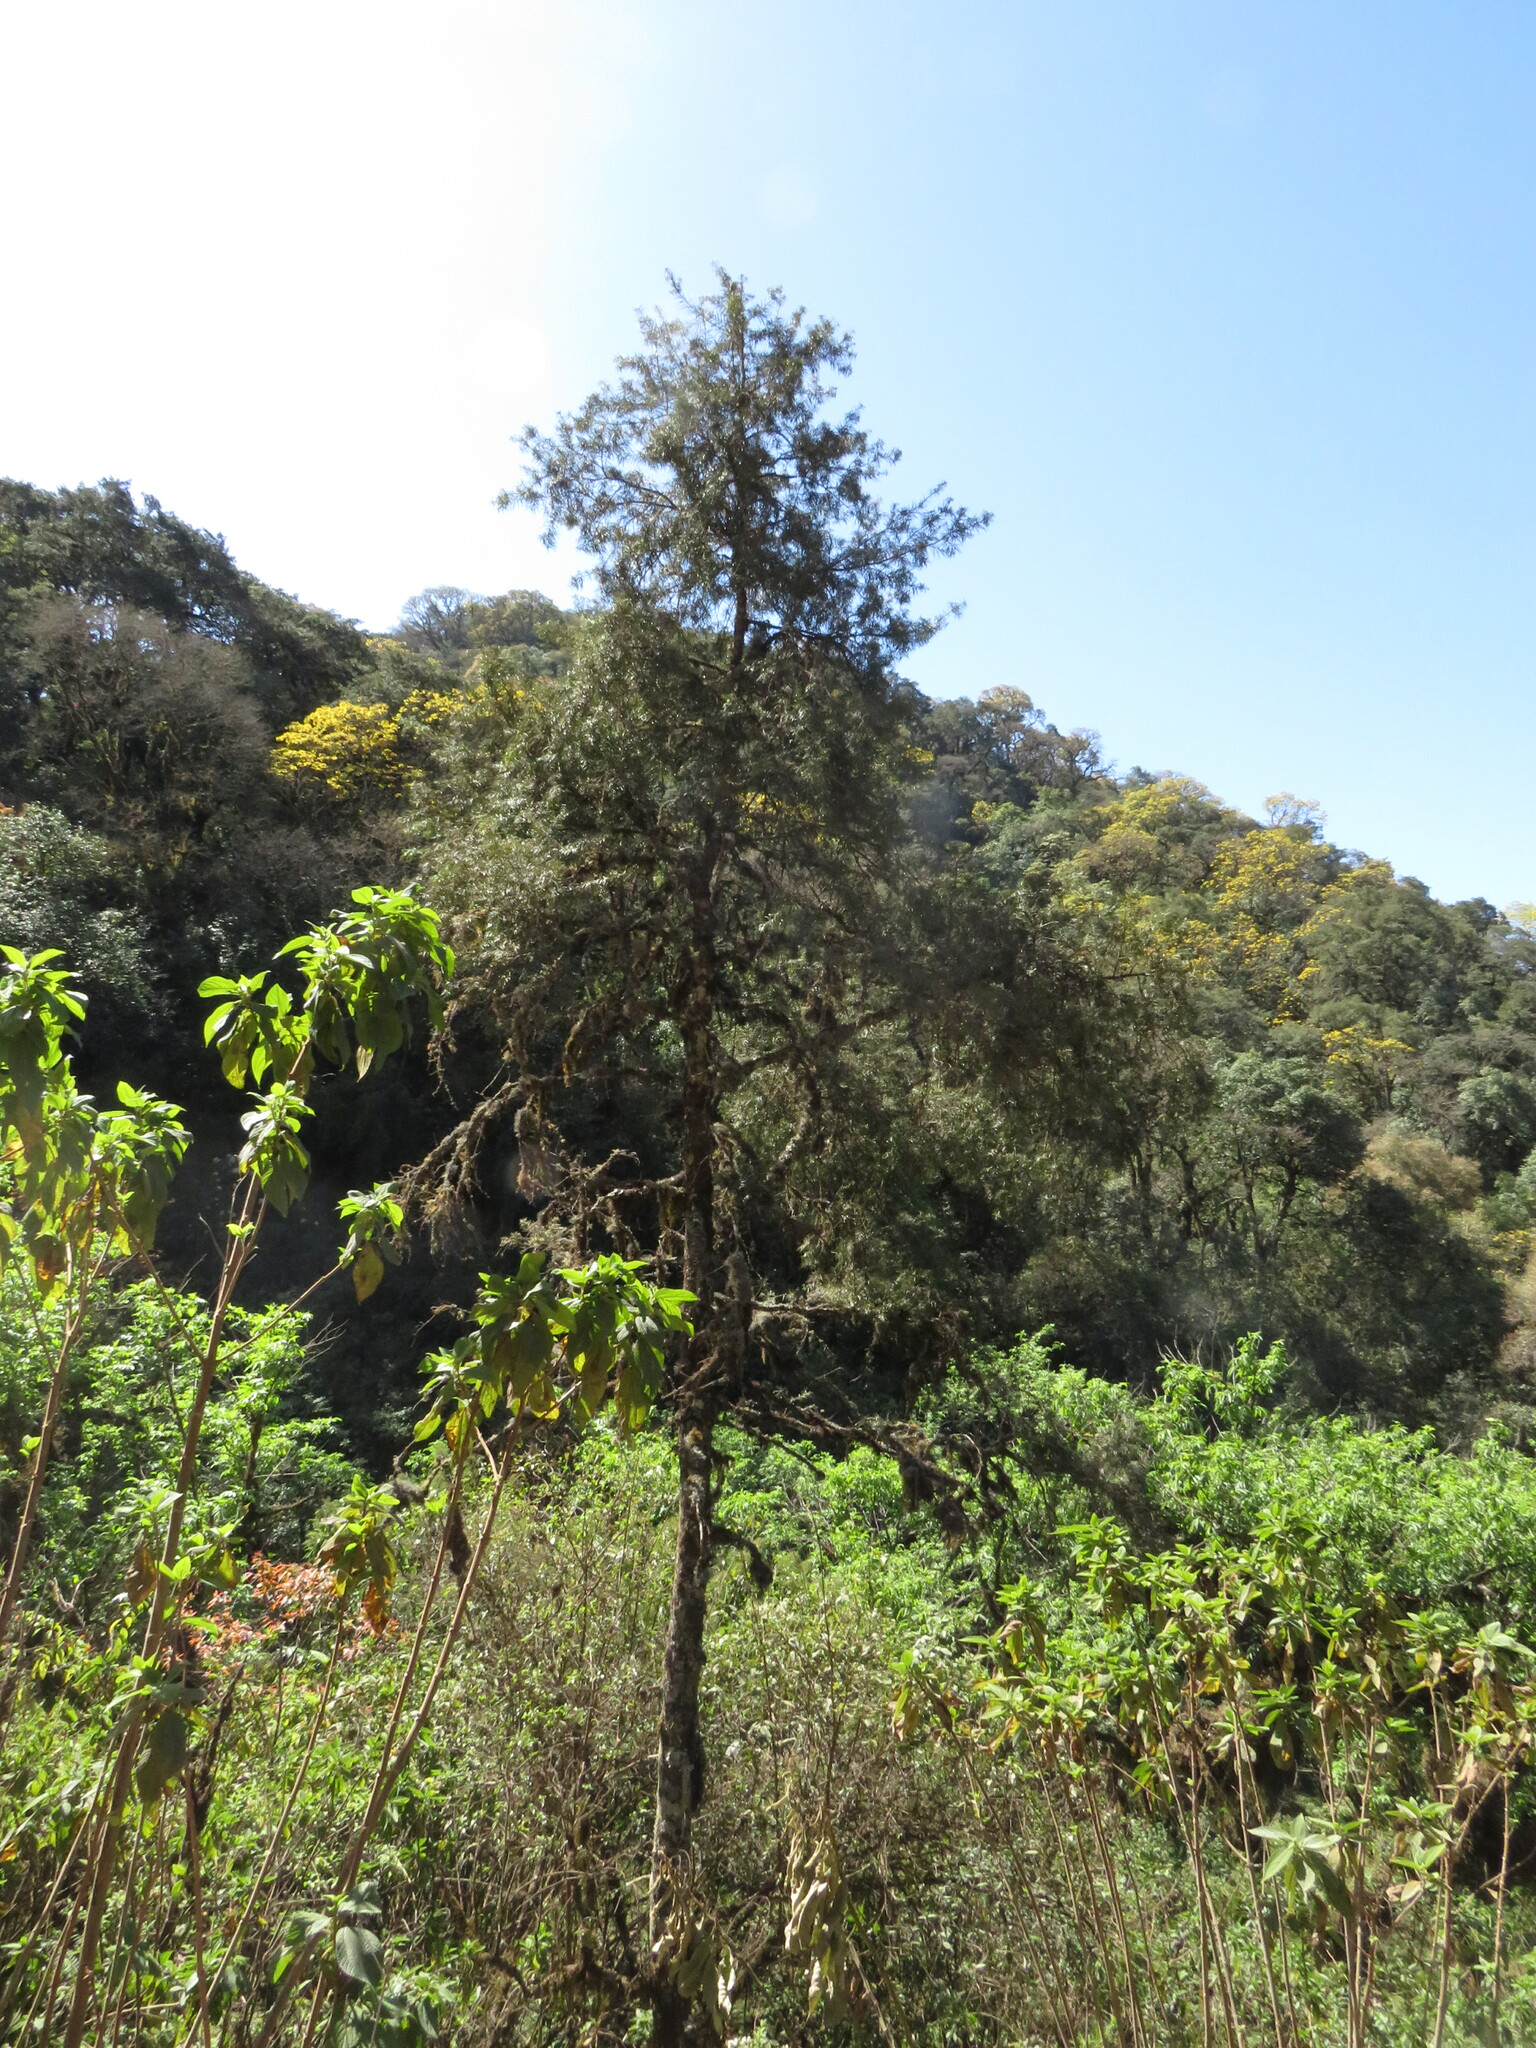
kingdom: Plantae
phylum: Tracheophyta
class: Pinopsida
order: Pinales
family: Podocarpaceae
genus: Podocarpus
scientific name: Podocarpus parlatorei
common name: Pino blanco
